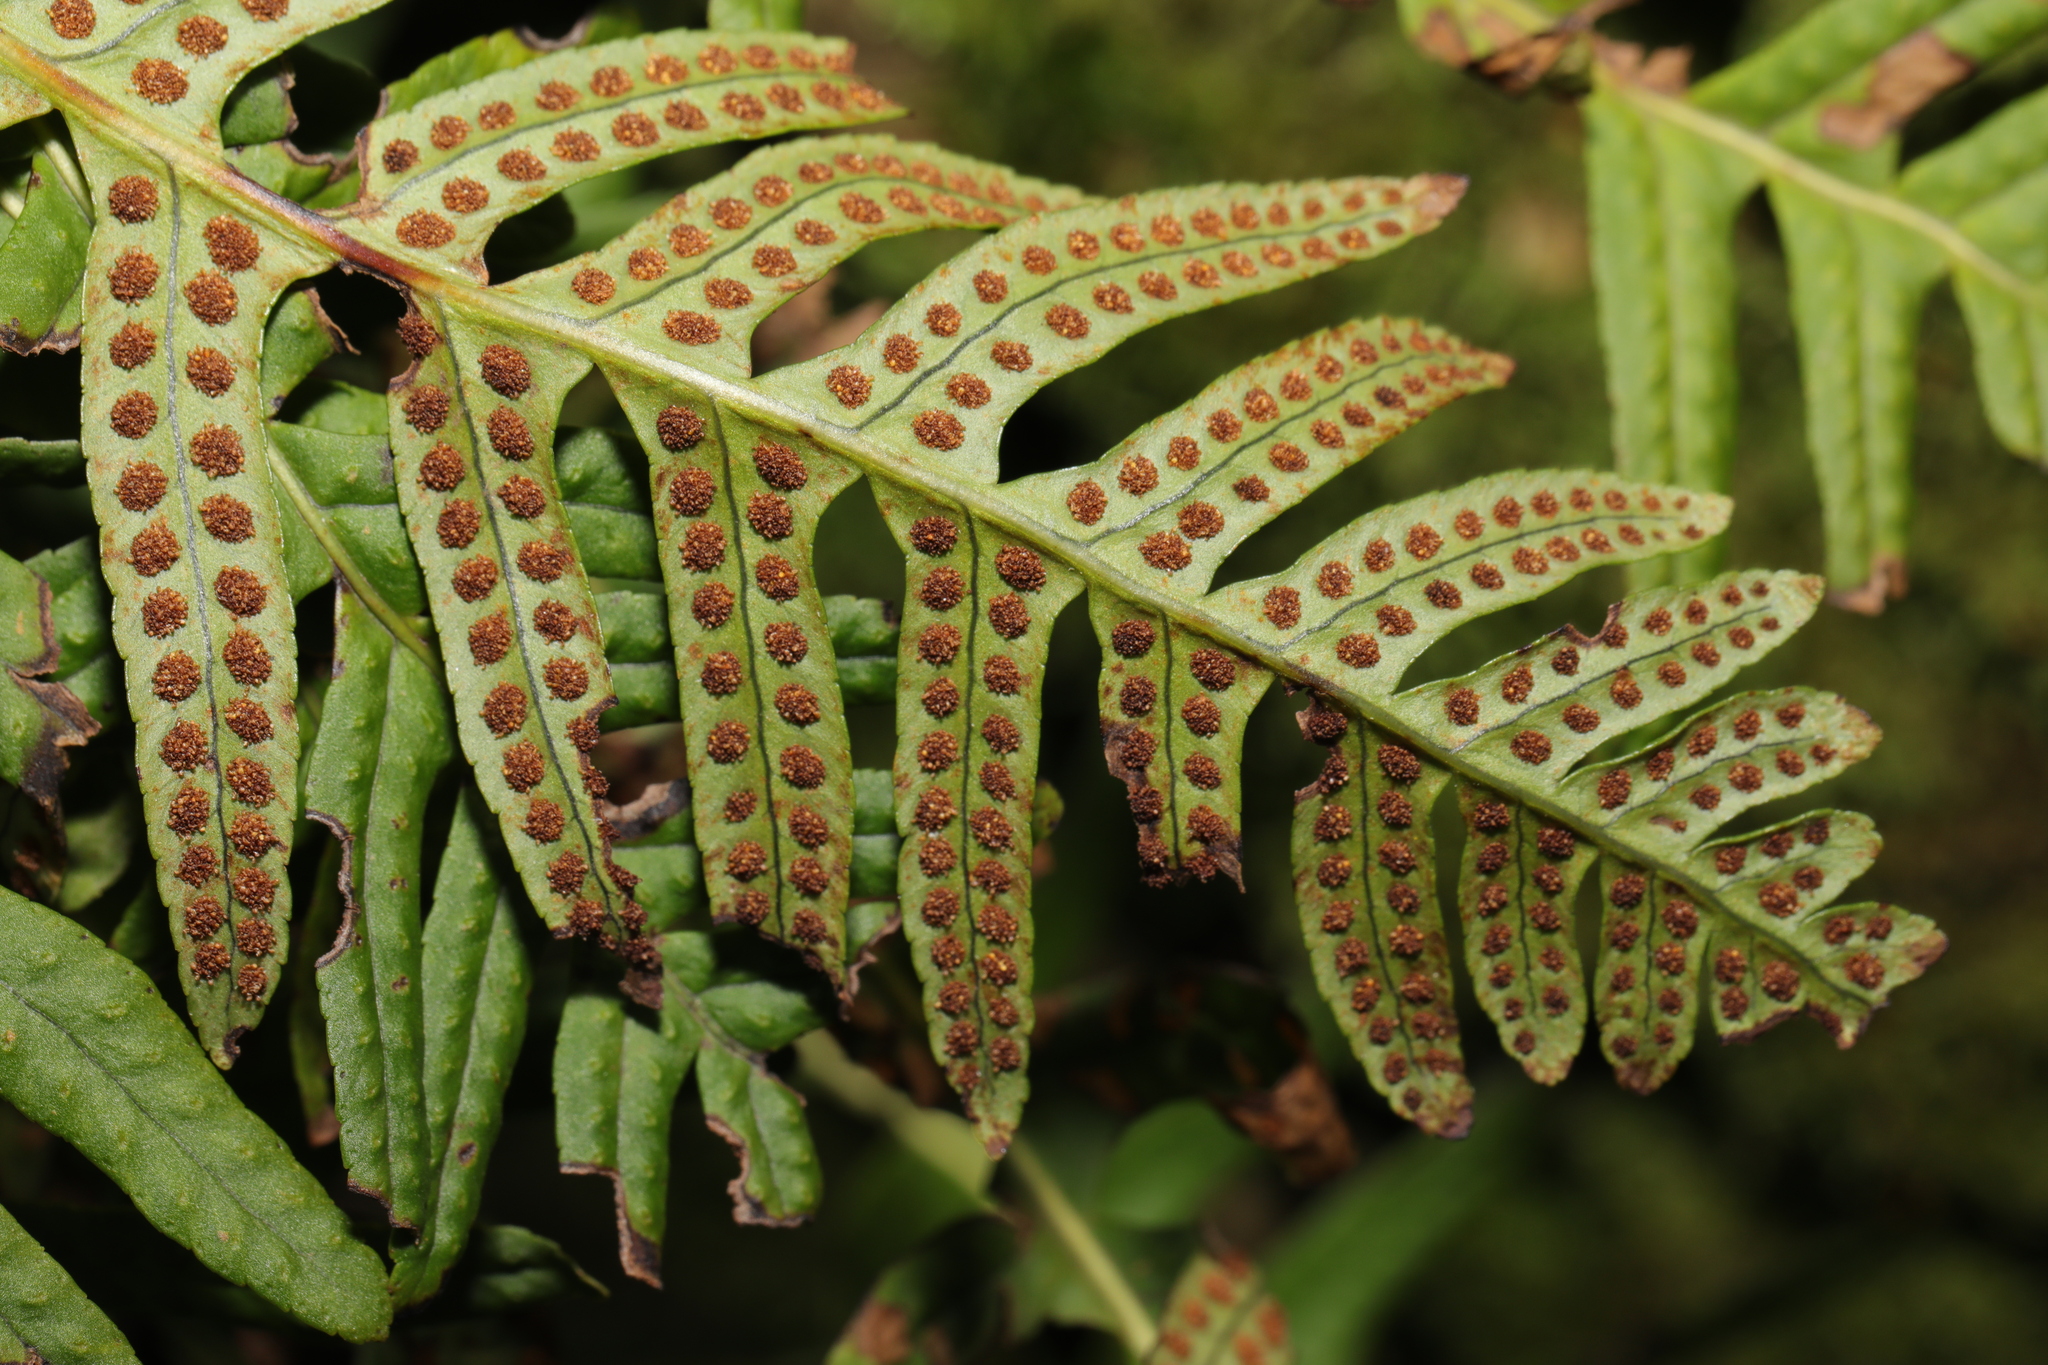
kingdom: Plantae
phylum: Tracheophyta
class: Polypodiopsida
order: Polypodiales
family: Polypodiaceae
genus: Polypodium
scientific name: Polypodium interjectum
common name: Intermediate polypody
